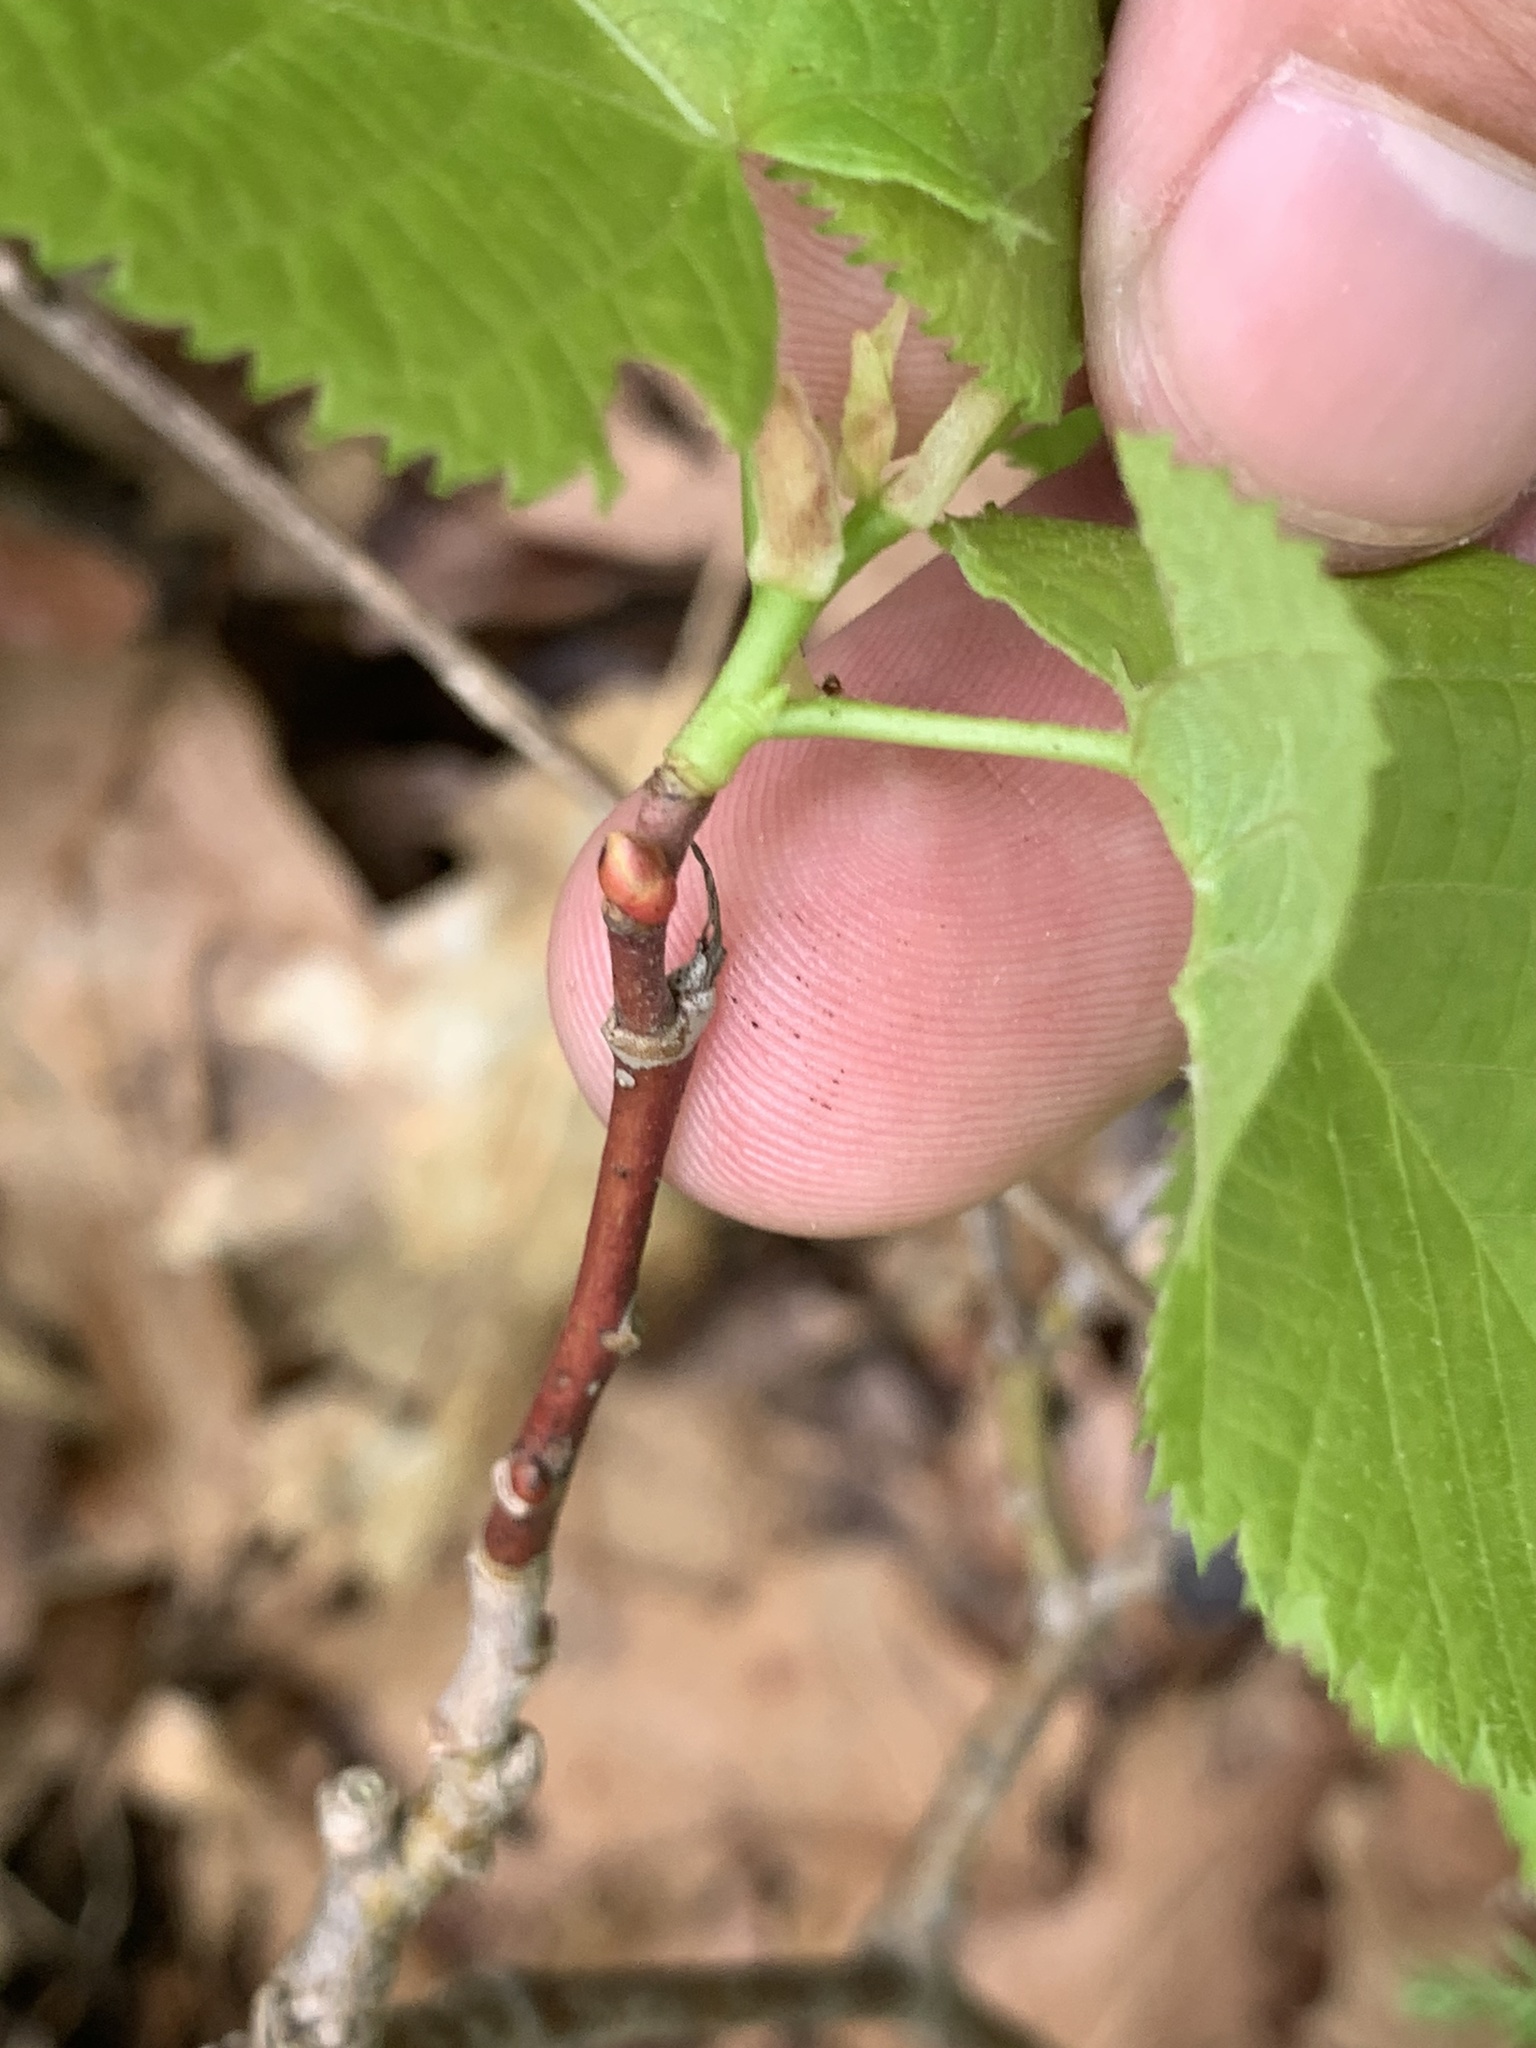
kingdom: Plantae
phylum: Tracheophyta
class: Magnoliopsida
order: Malvales
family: Malvaceae
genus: Tilia
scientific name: Tilia americana
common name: Basswood
